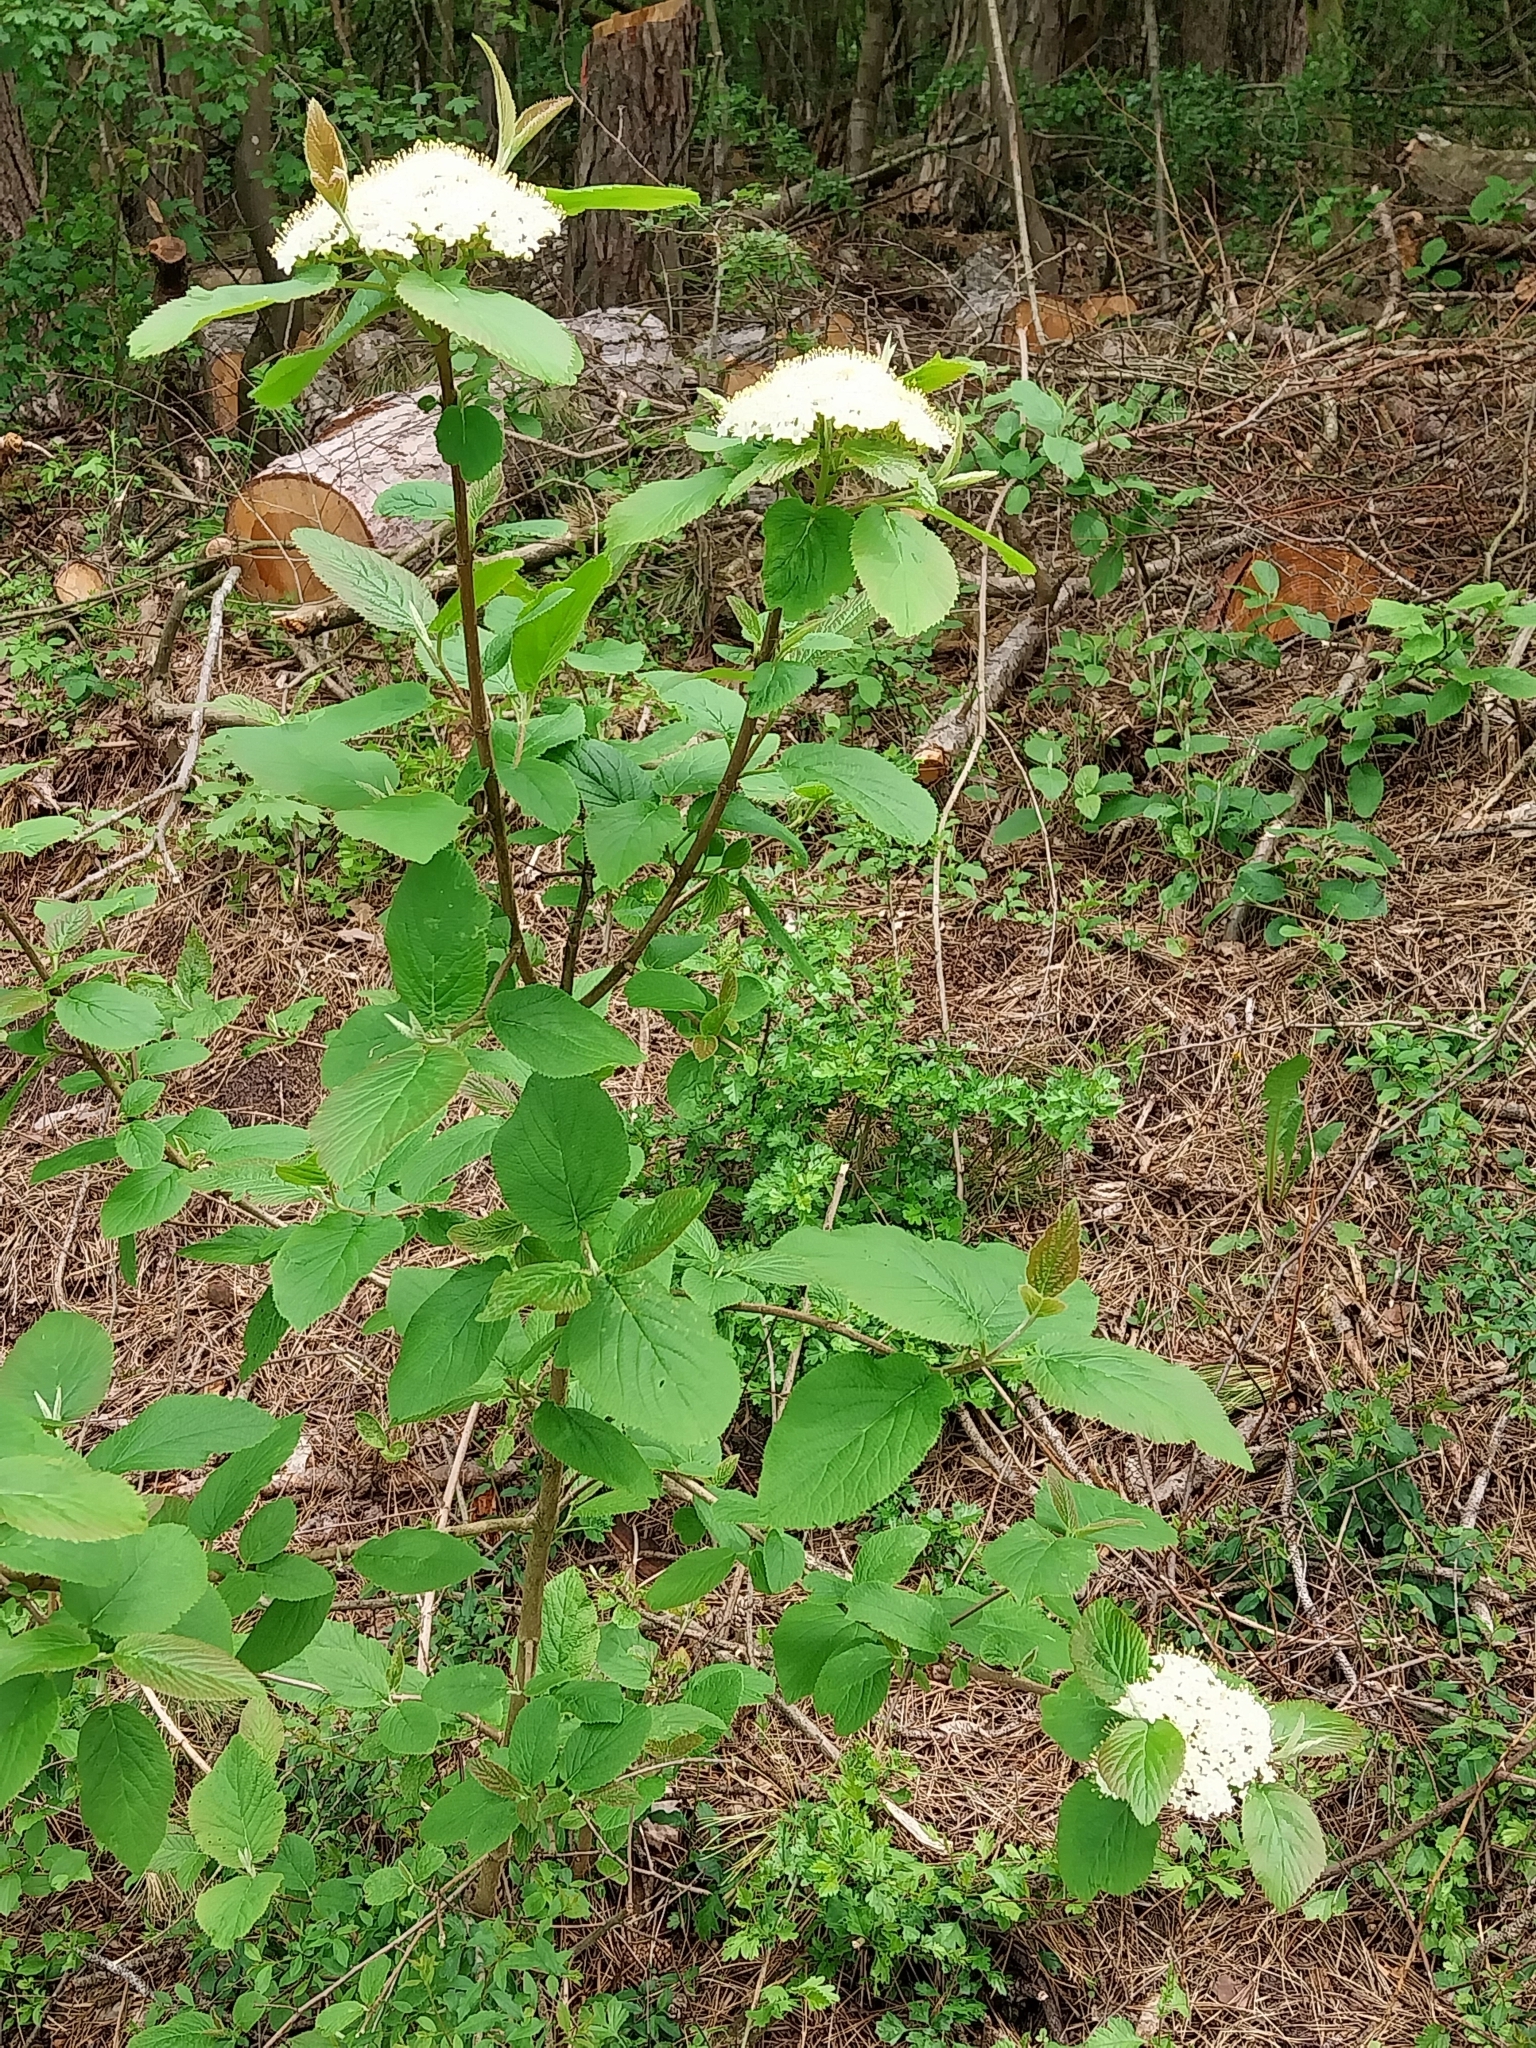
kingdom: Plantae
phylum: Tracheophyta
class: Magnoliopsida
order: Dipsacales
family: Viburnaceae
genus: Viburnum
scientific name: Viburnum lantana
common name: Wayfaring tree
